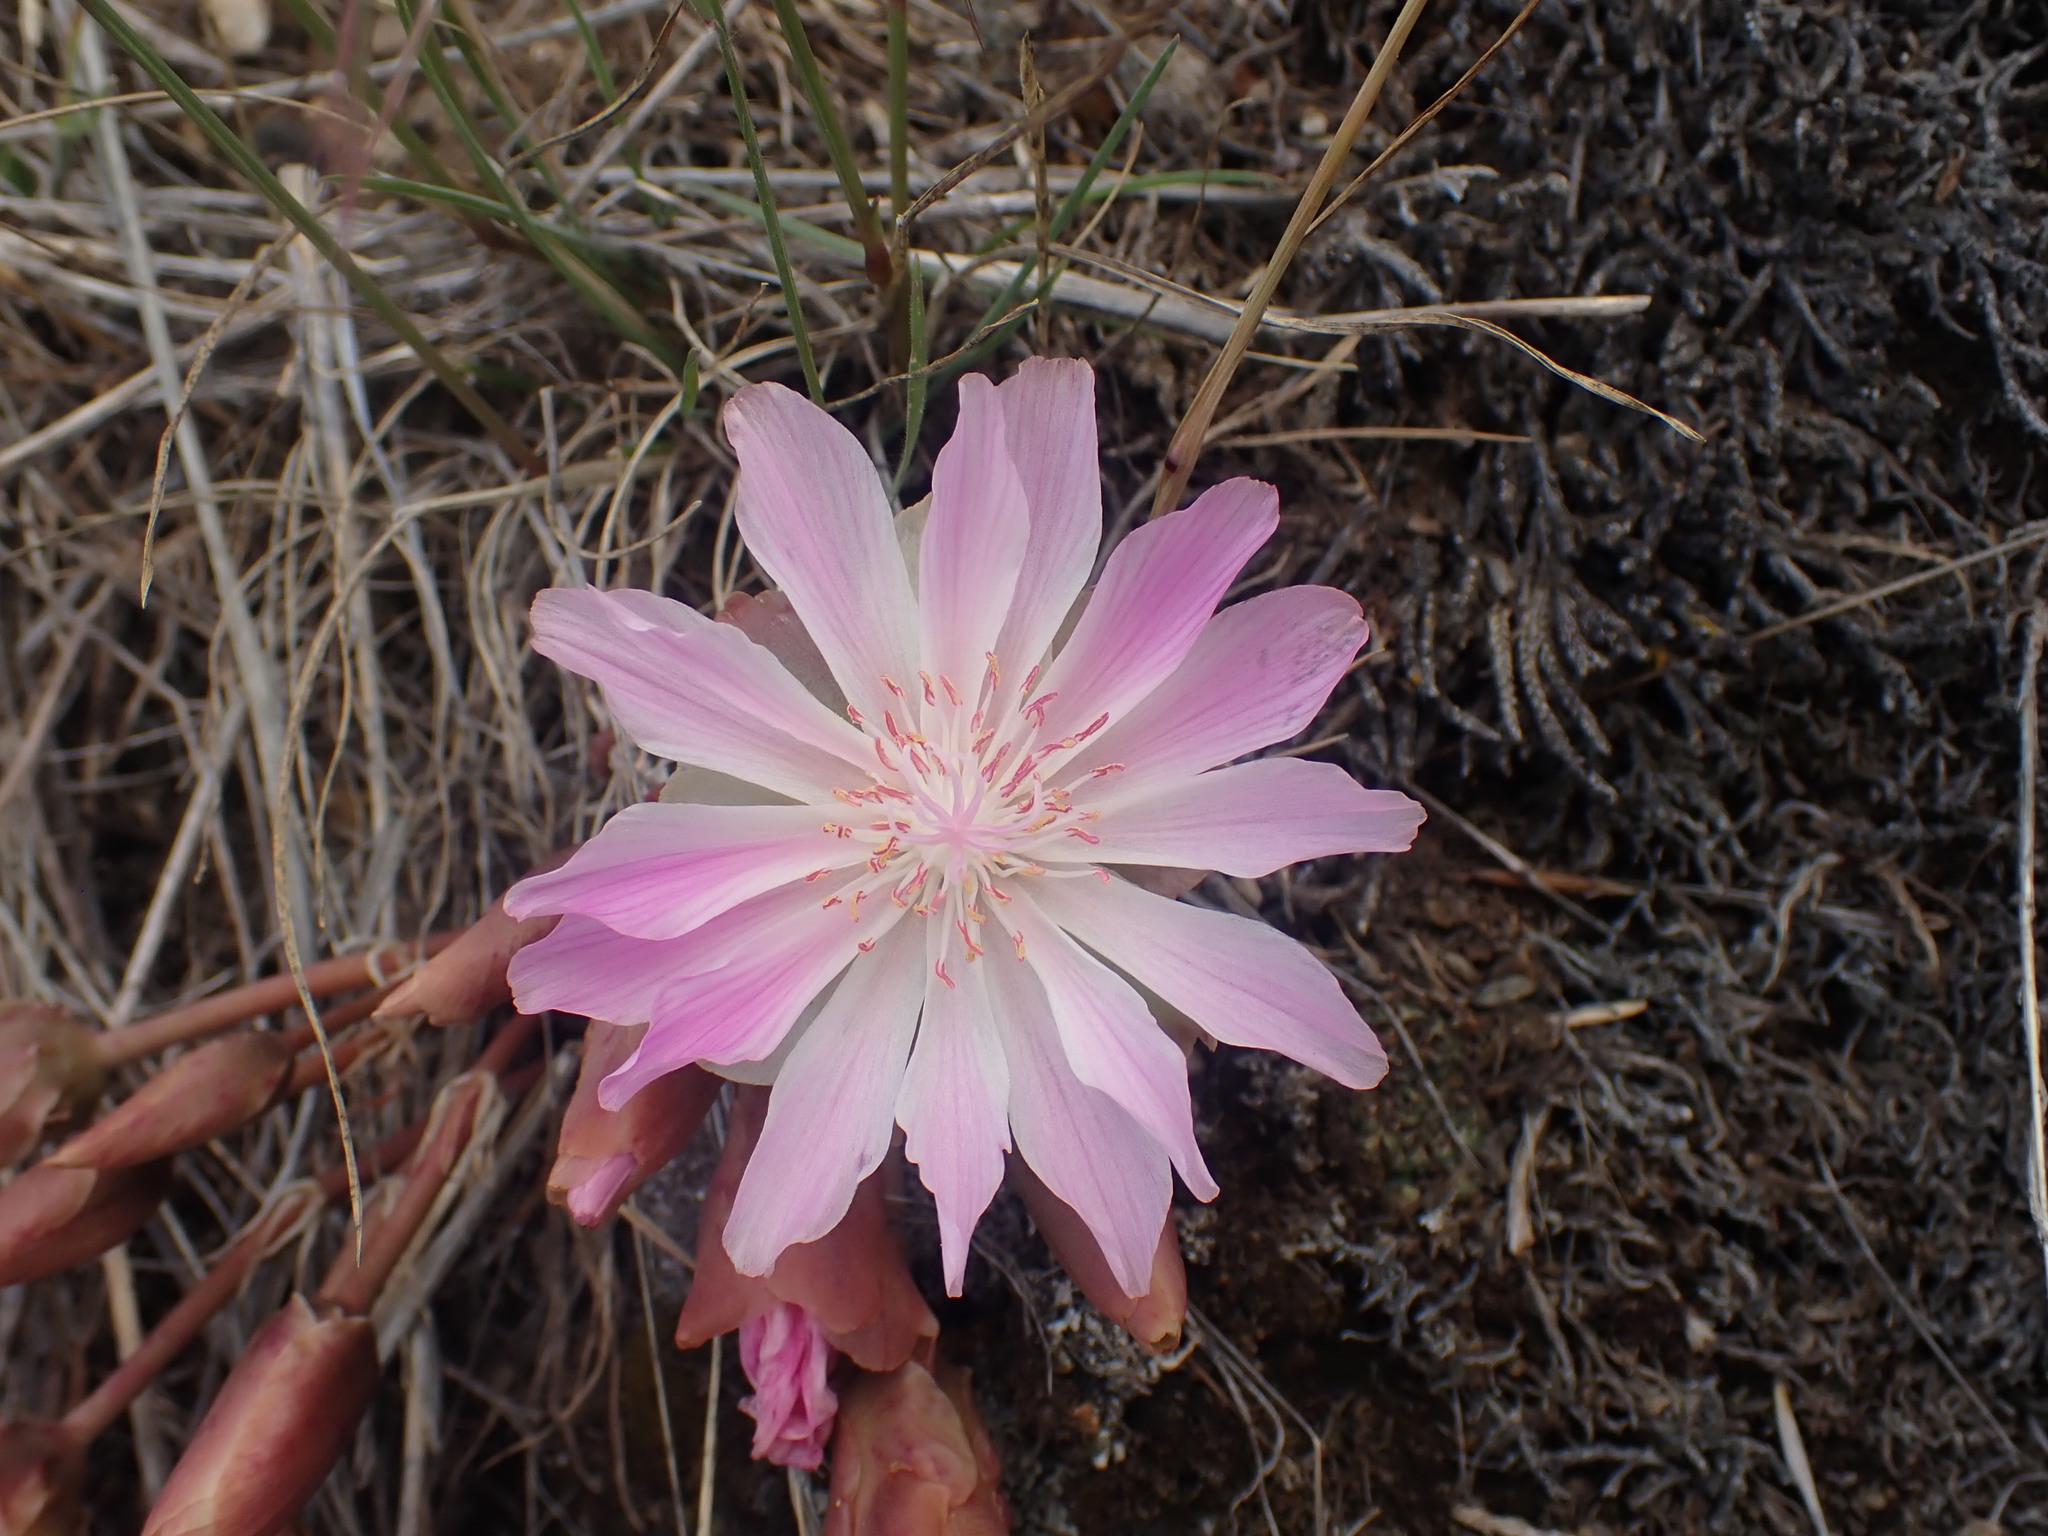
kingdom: Plantae
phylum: Tracheophyta
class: Magnoliopsida
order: Caryophyllales
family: Montiaceae
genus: Lewisia
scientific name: Lewisia rediviva
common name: Bitter-root
